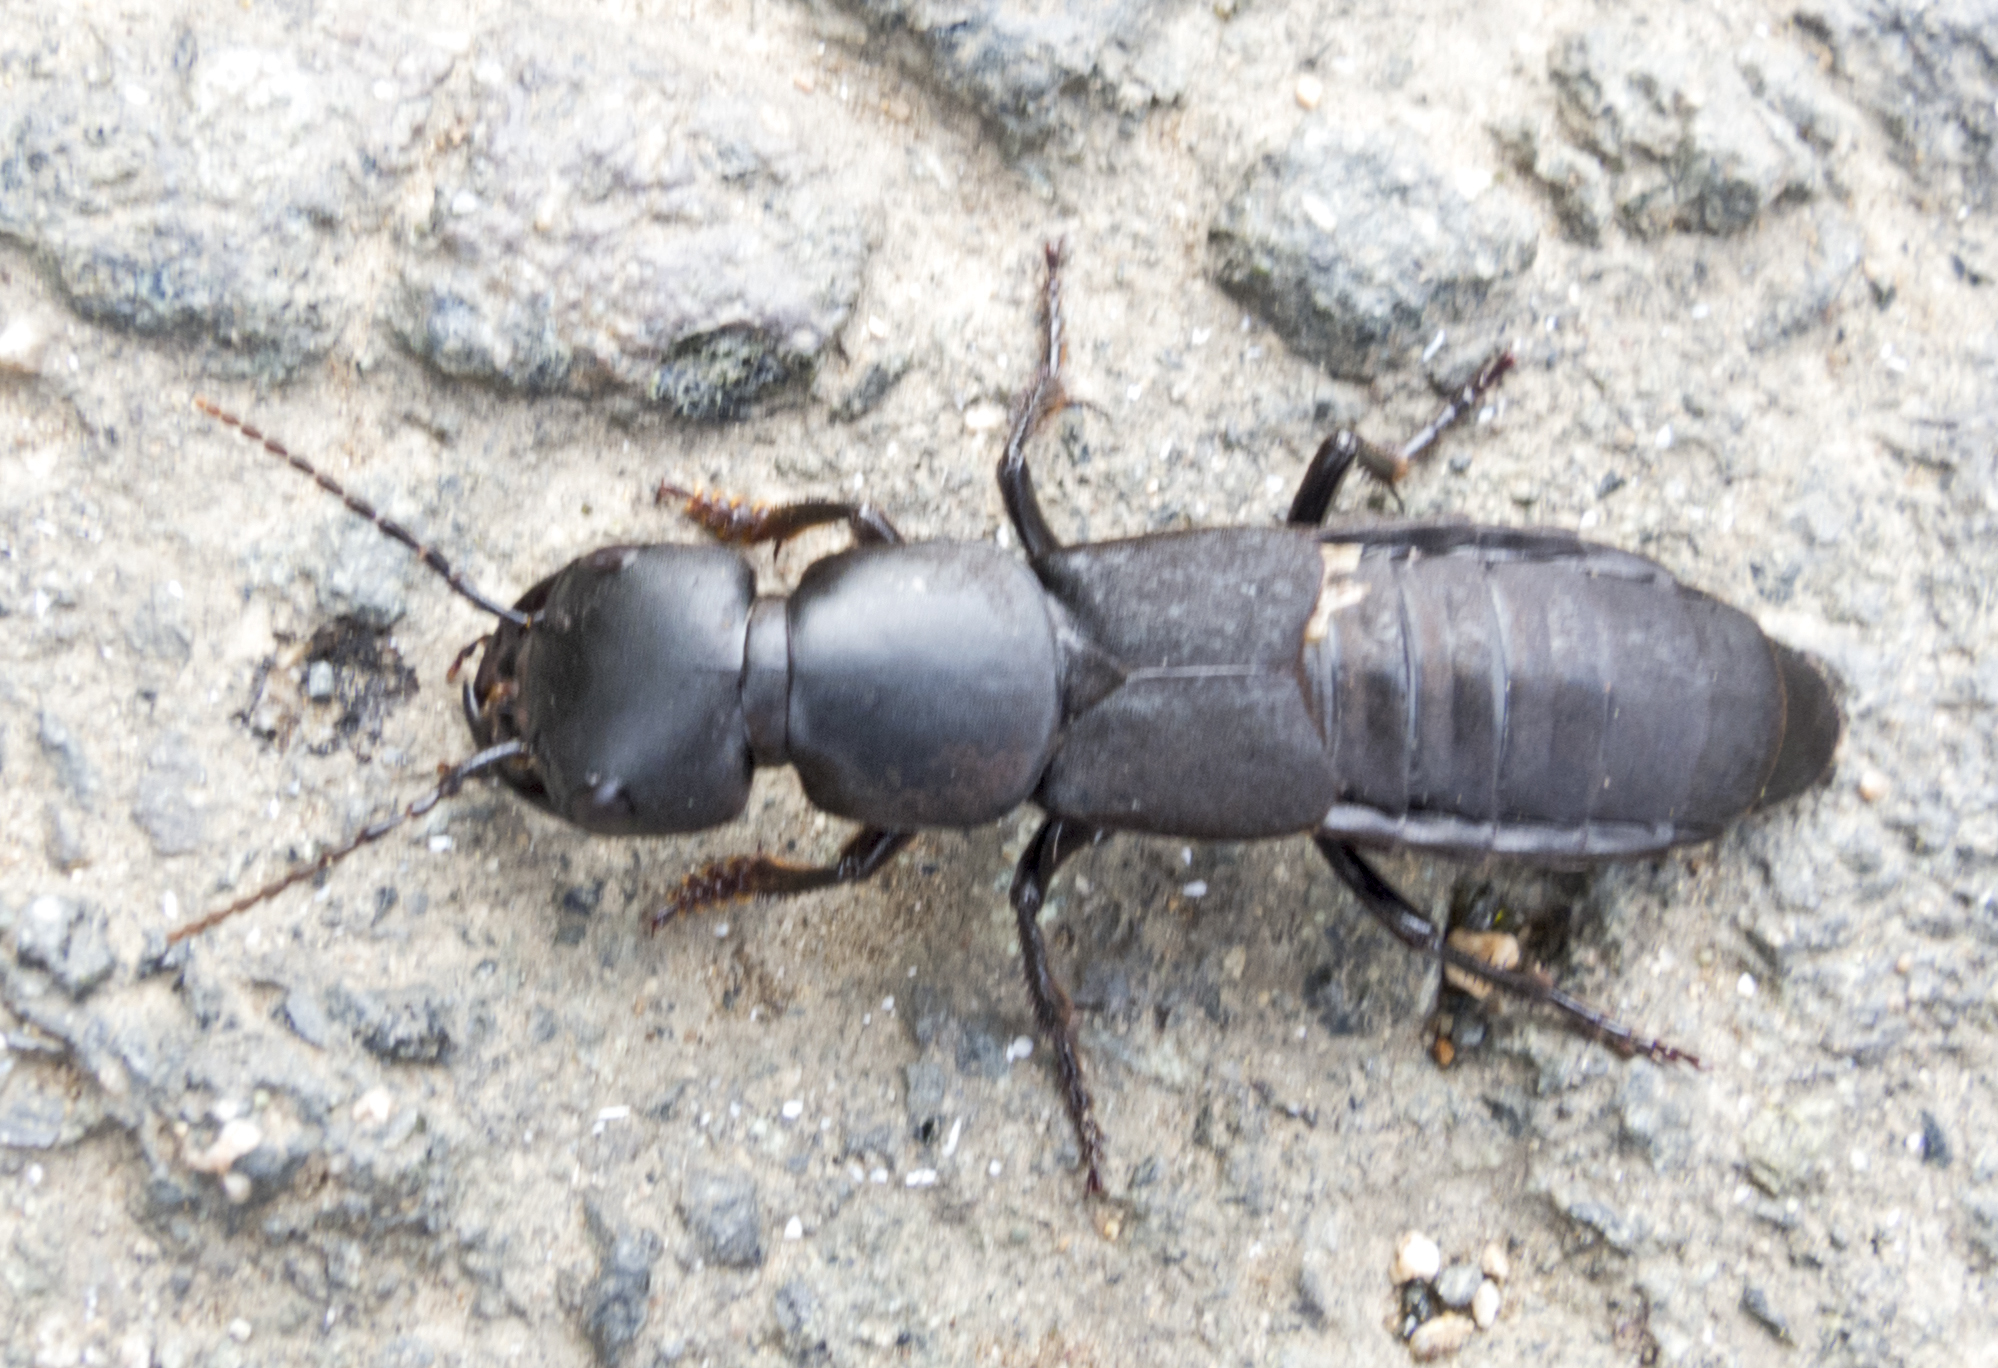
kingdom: Animalia
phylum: Arthropoda
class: Insecta
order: Coleoptera
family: Staphylinidae
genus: Ocypus
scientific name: Ocypus curtipennis
